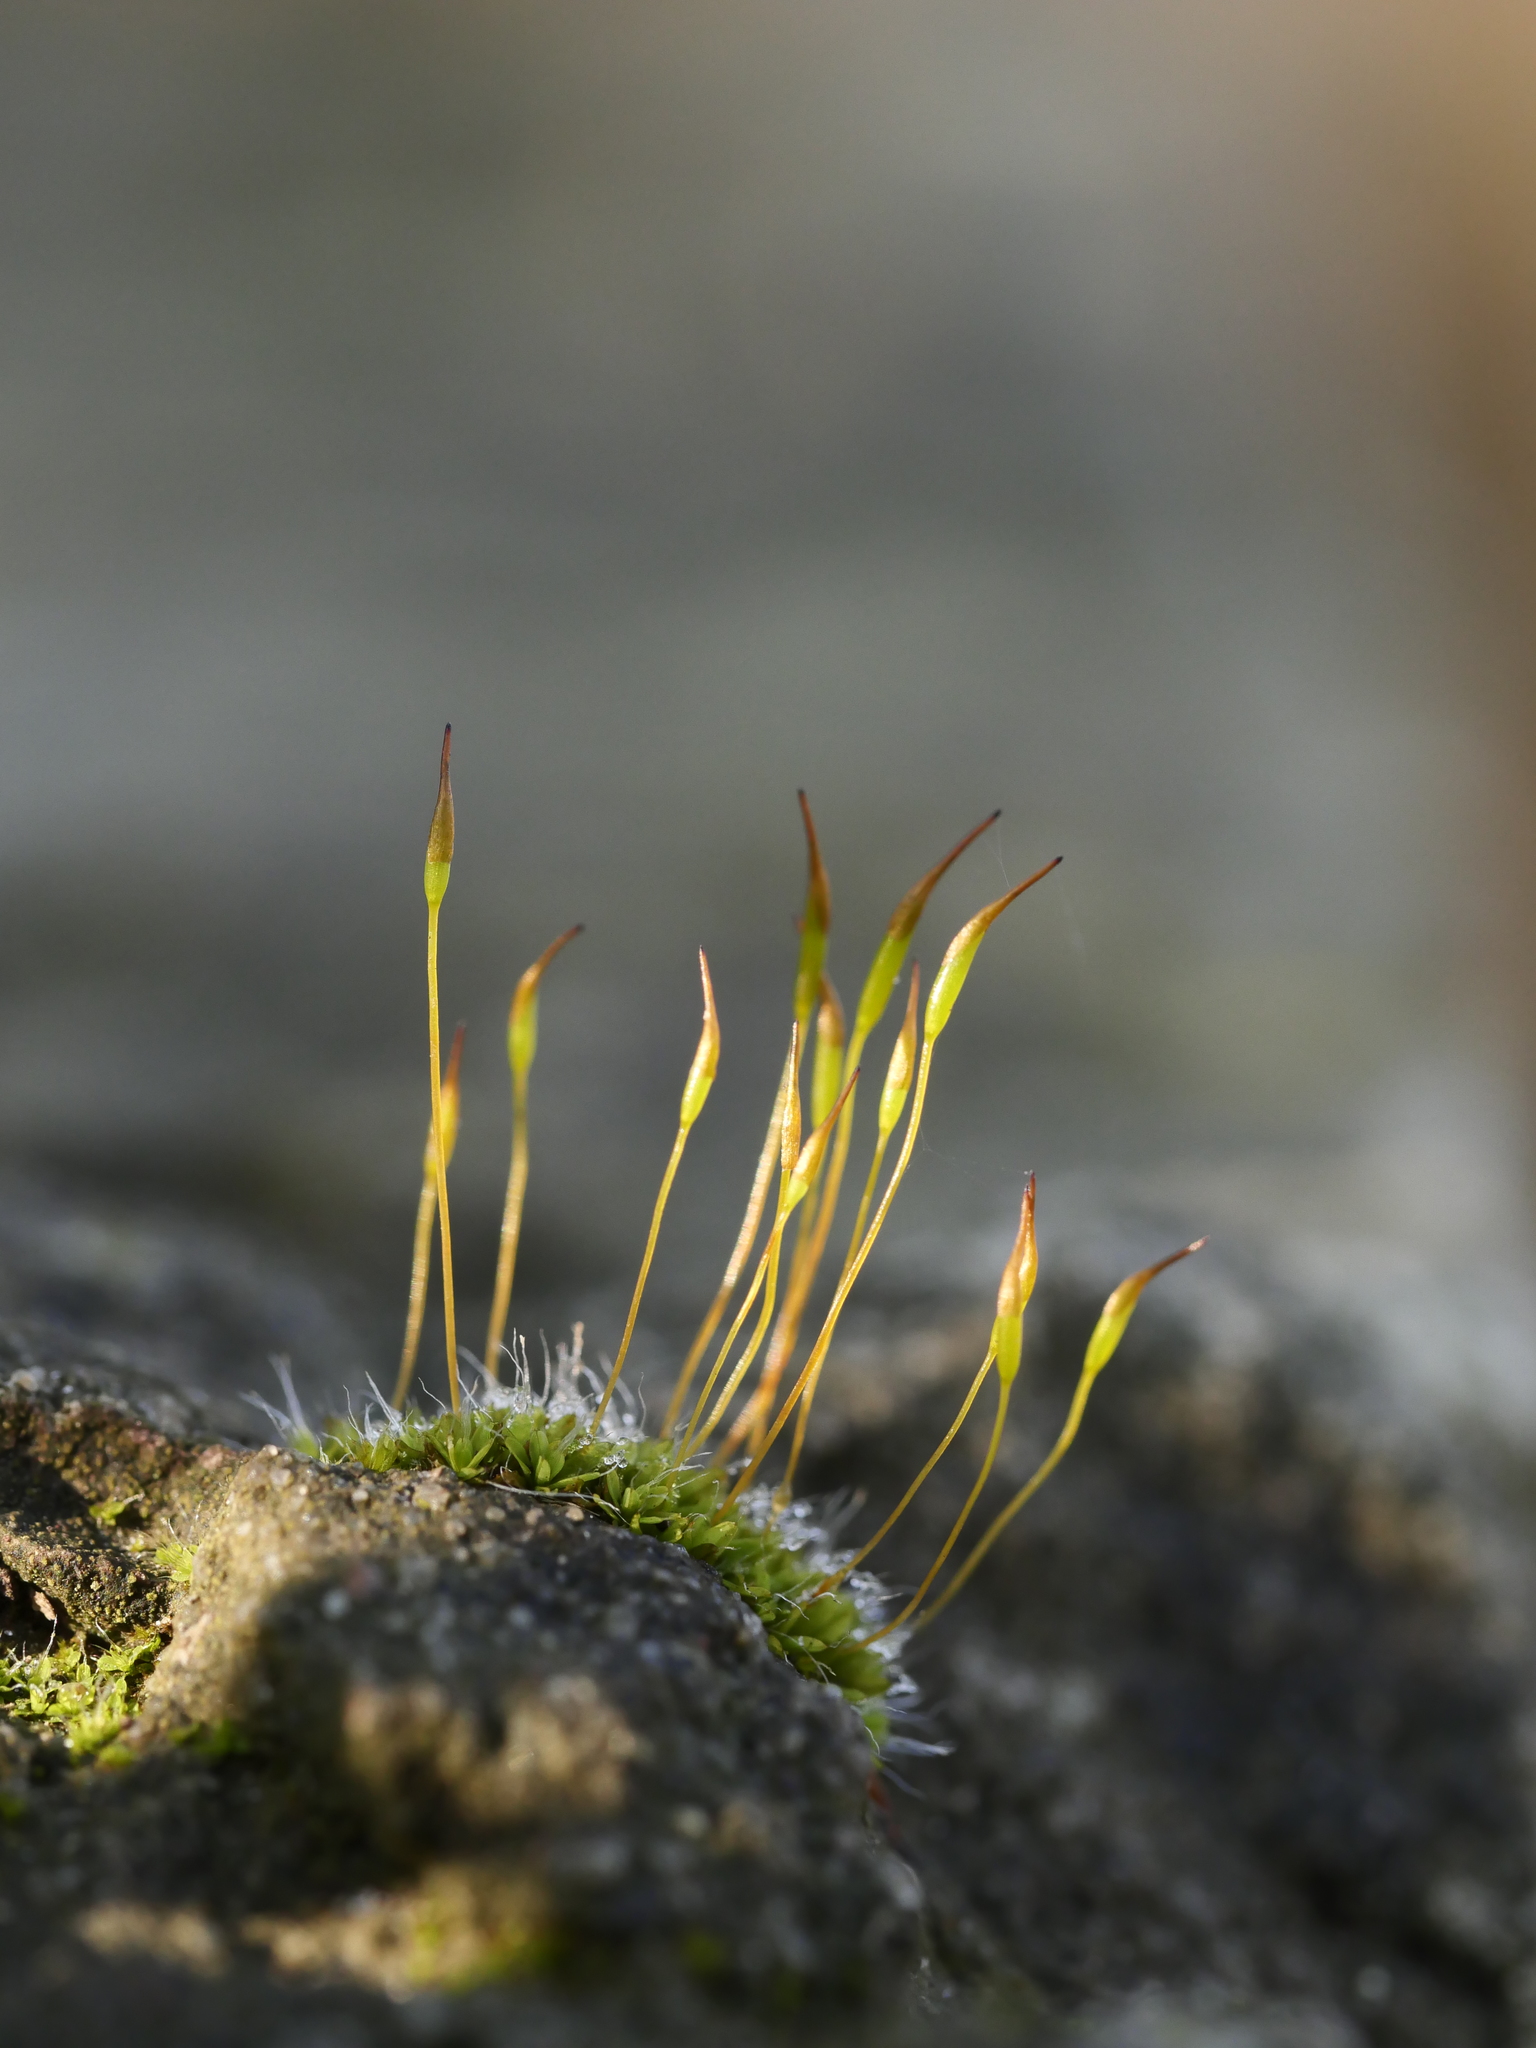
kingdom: Plantae
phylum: Bryophyta
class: Bryopsida
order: Pottiales
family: Pottiaceae
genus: Tortula
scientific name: Tortula muralis
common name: Wall screw-moss
